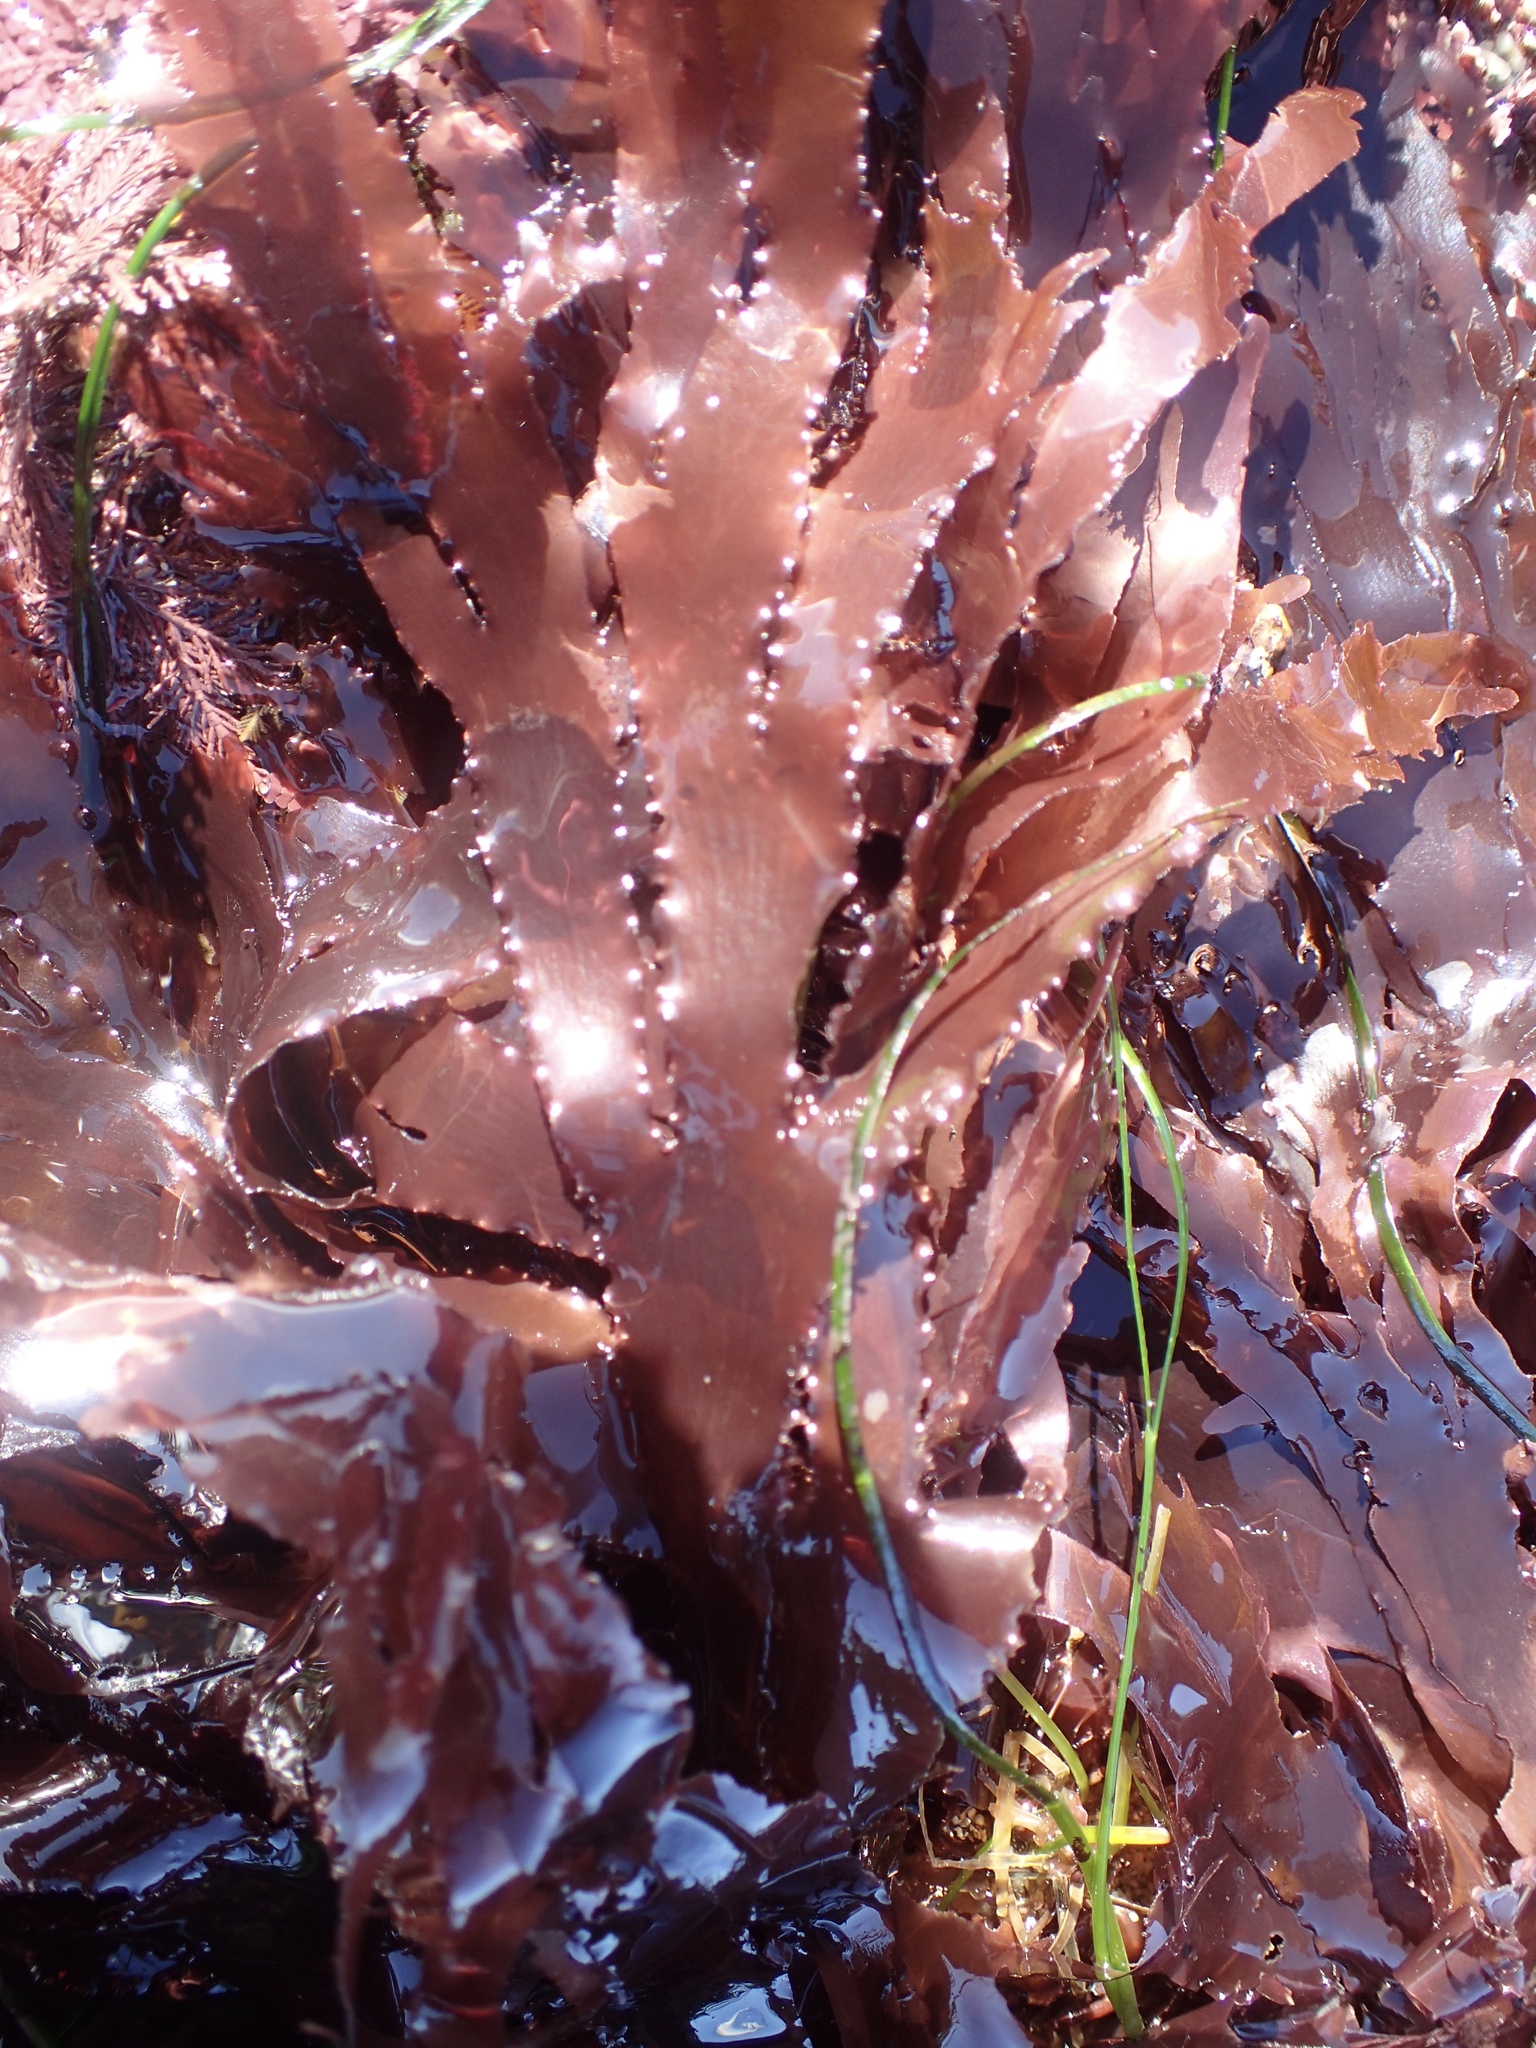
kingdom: Plantae
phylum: Rhodophyta
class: Florideophyceae
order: Ceramiales
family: Delesseriaceae
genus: Cryptopleura
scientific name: Cryptopleura ruprechtiana
